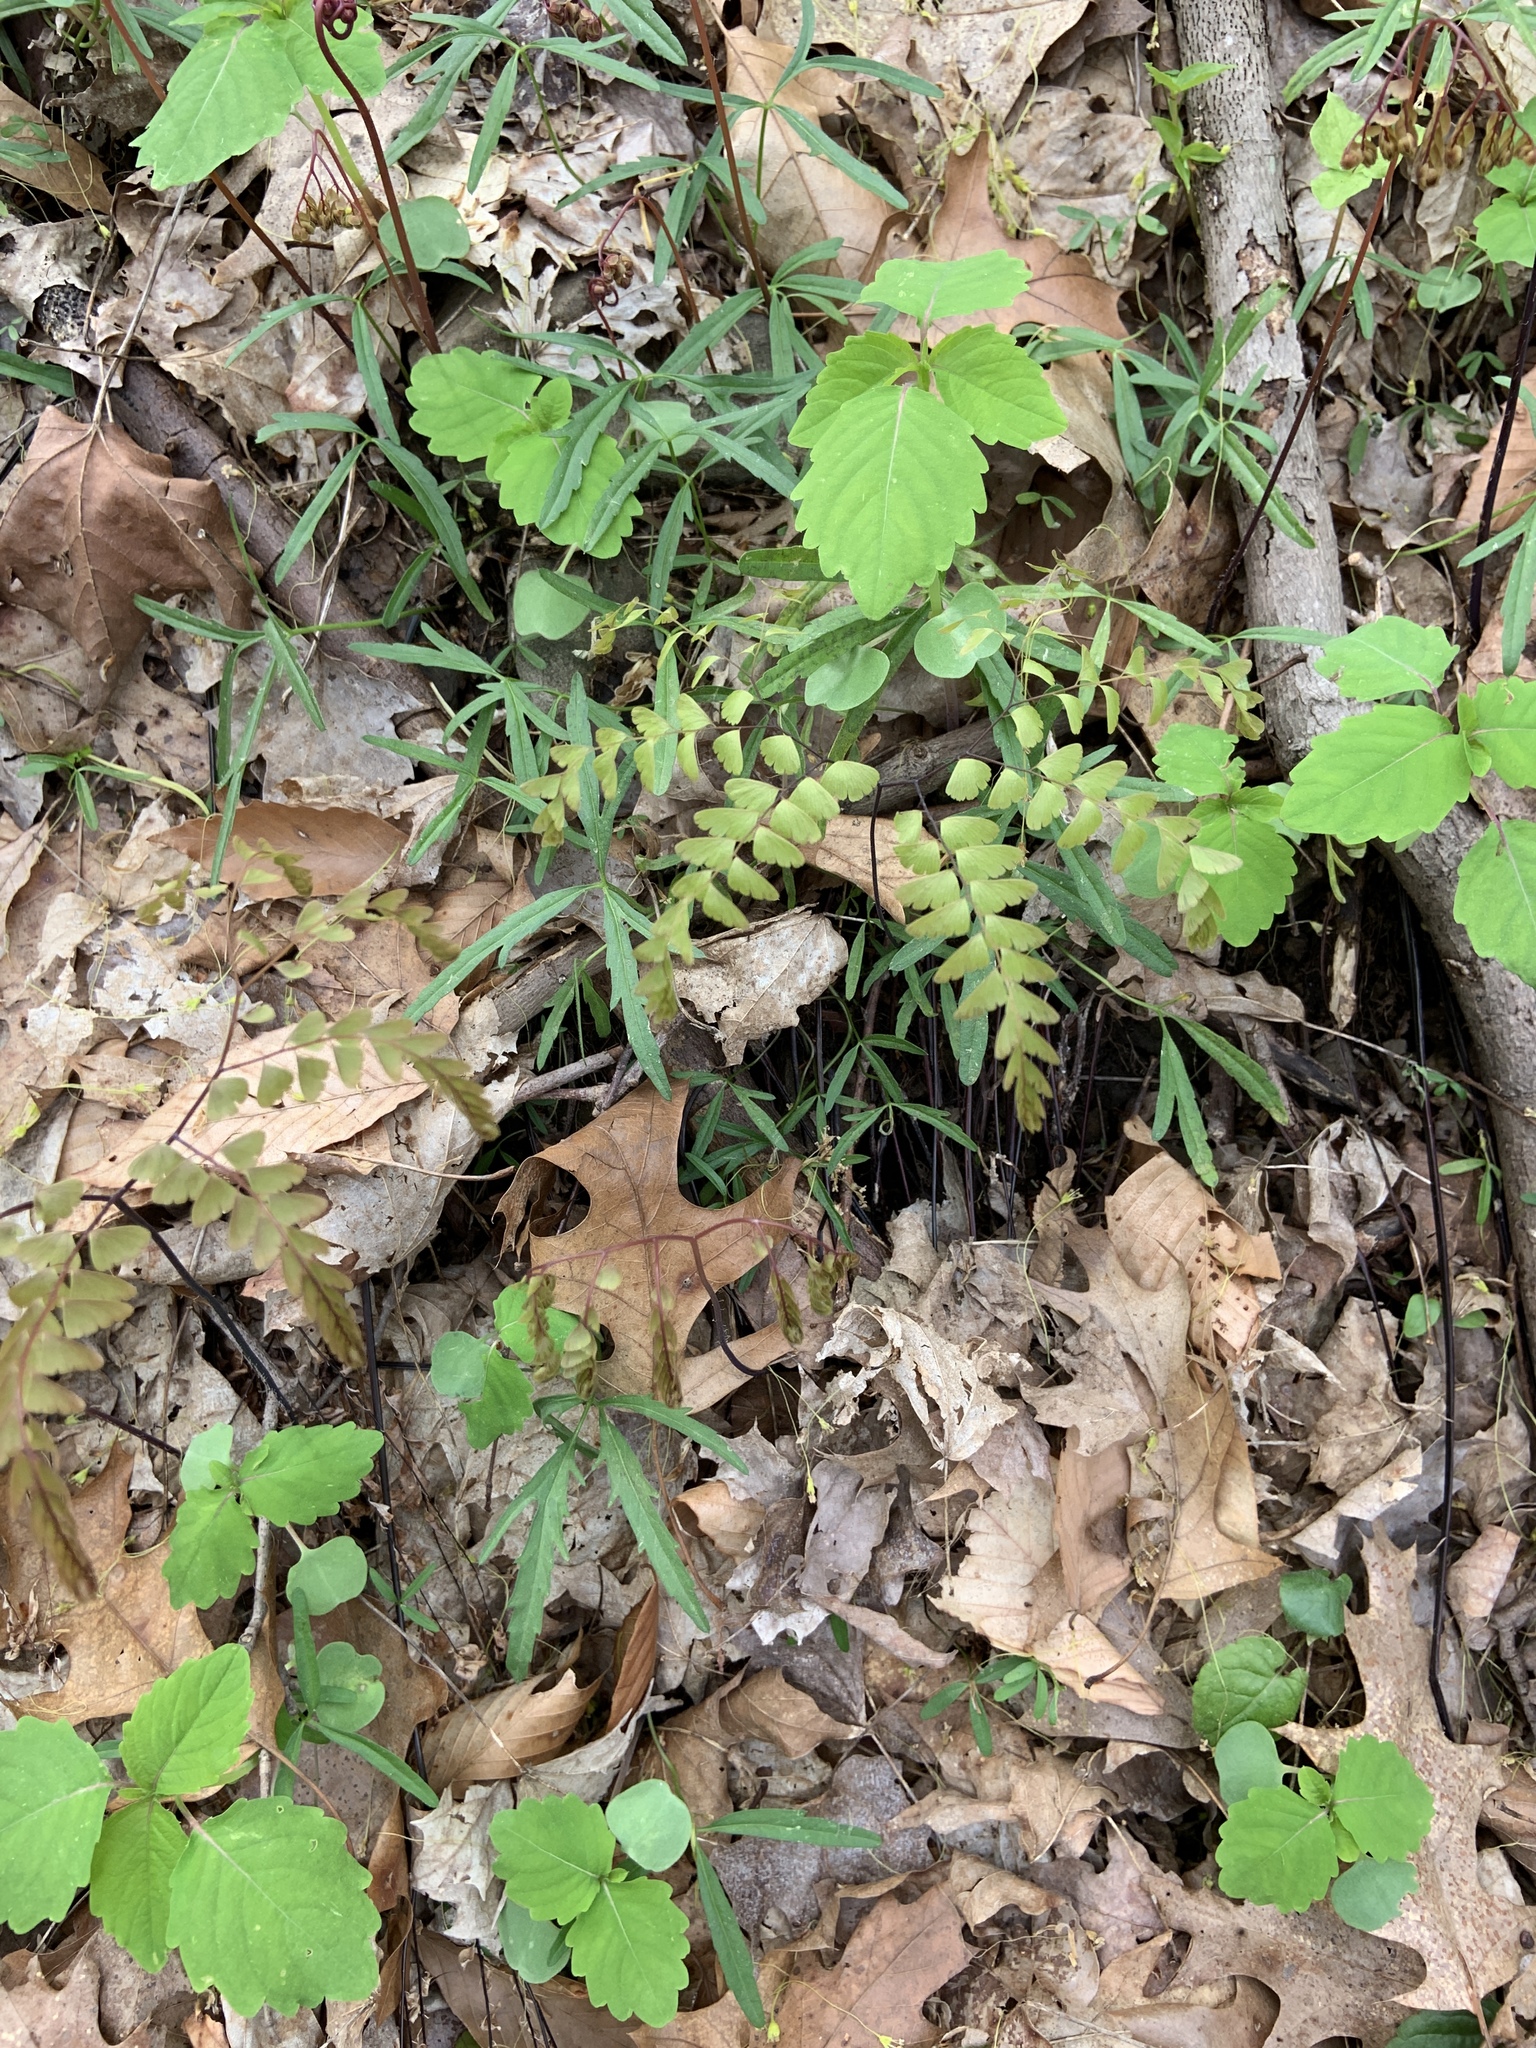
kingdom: Plantae
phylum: Tracheophyta
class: Polypodiopsida
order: Polypodiales
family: Pteridaceae
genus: Adiantum
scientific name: Adiantum pedatum
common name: Five-finger fern
